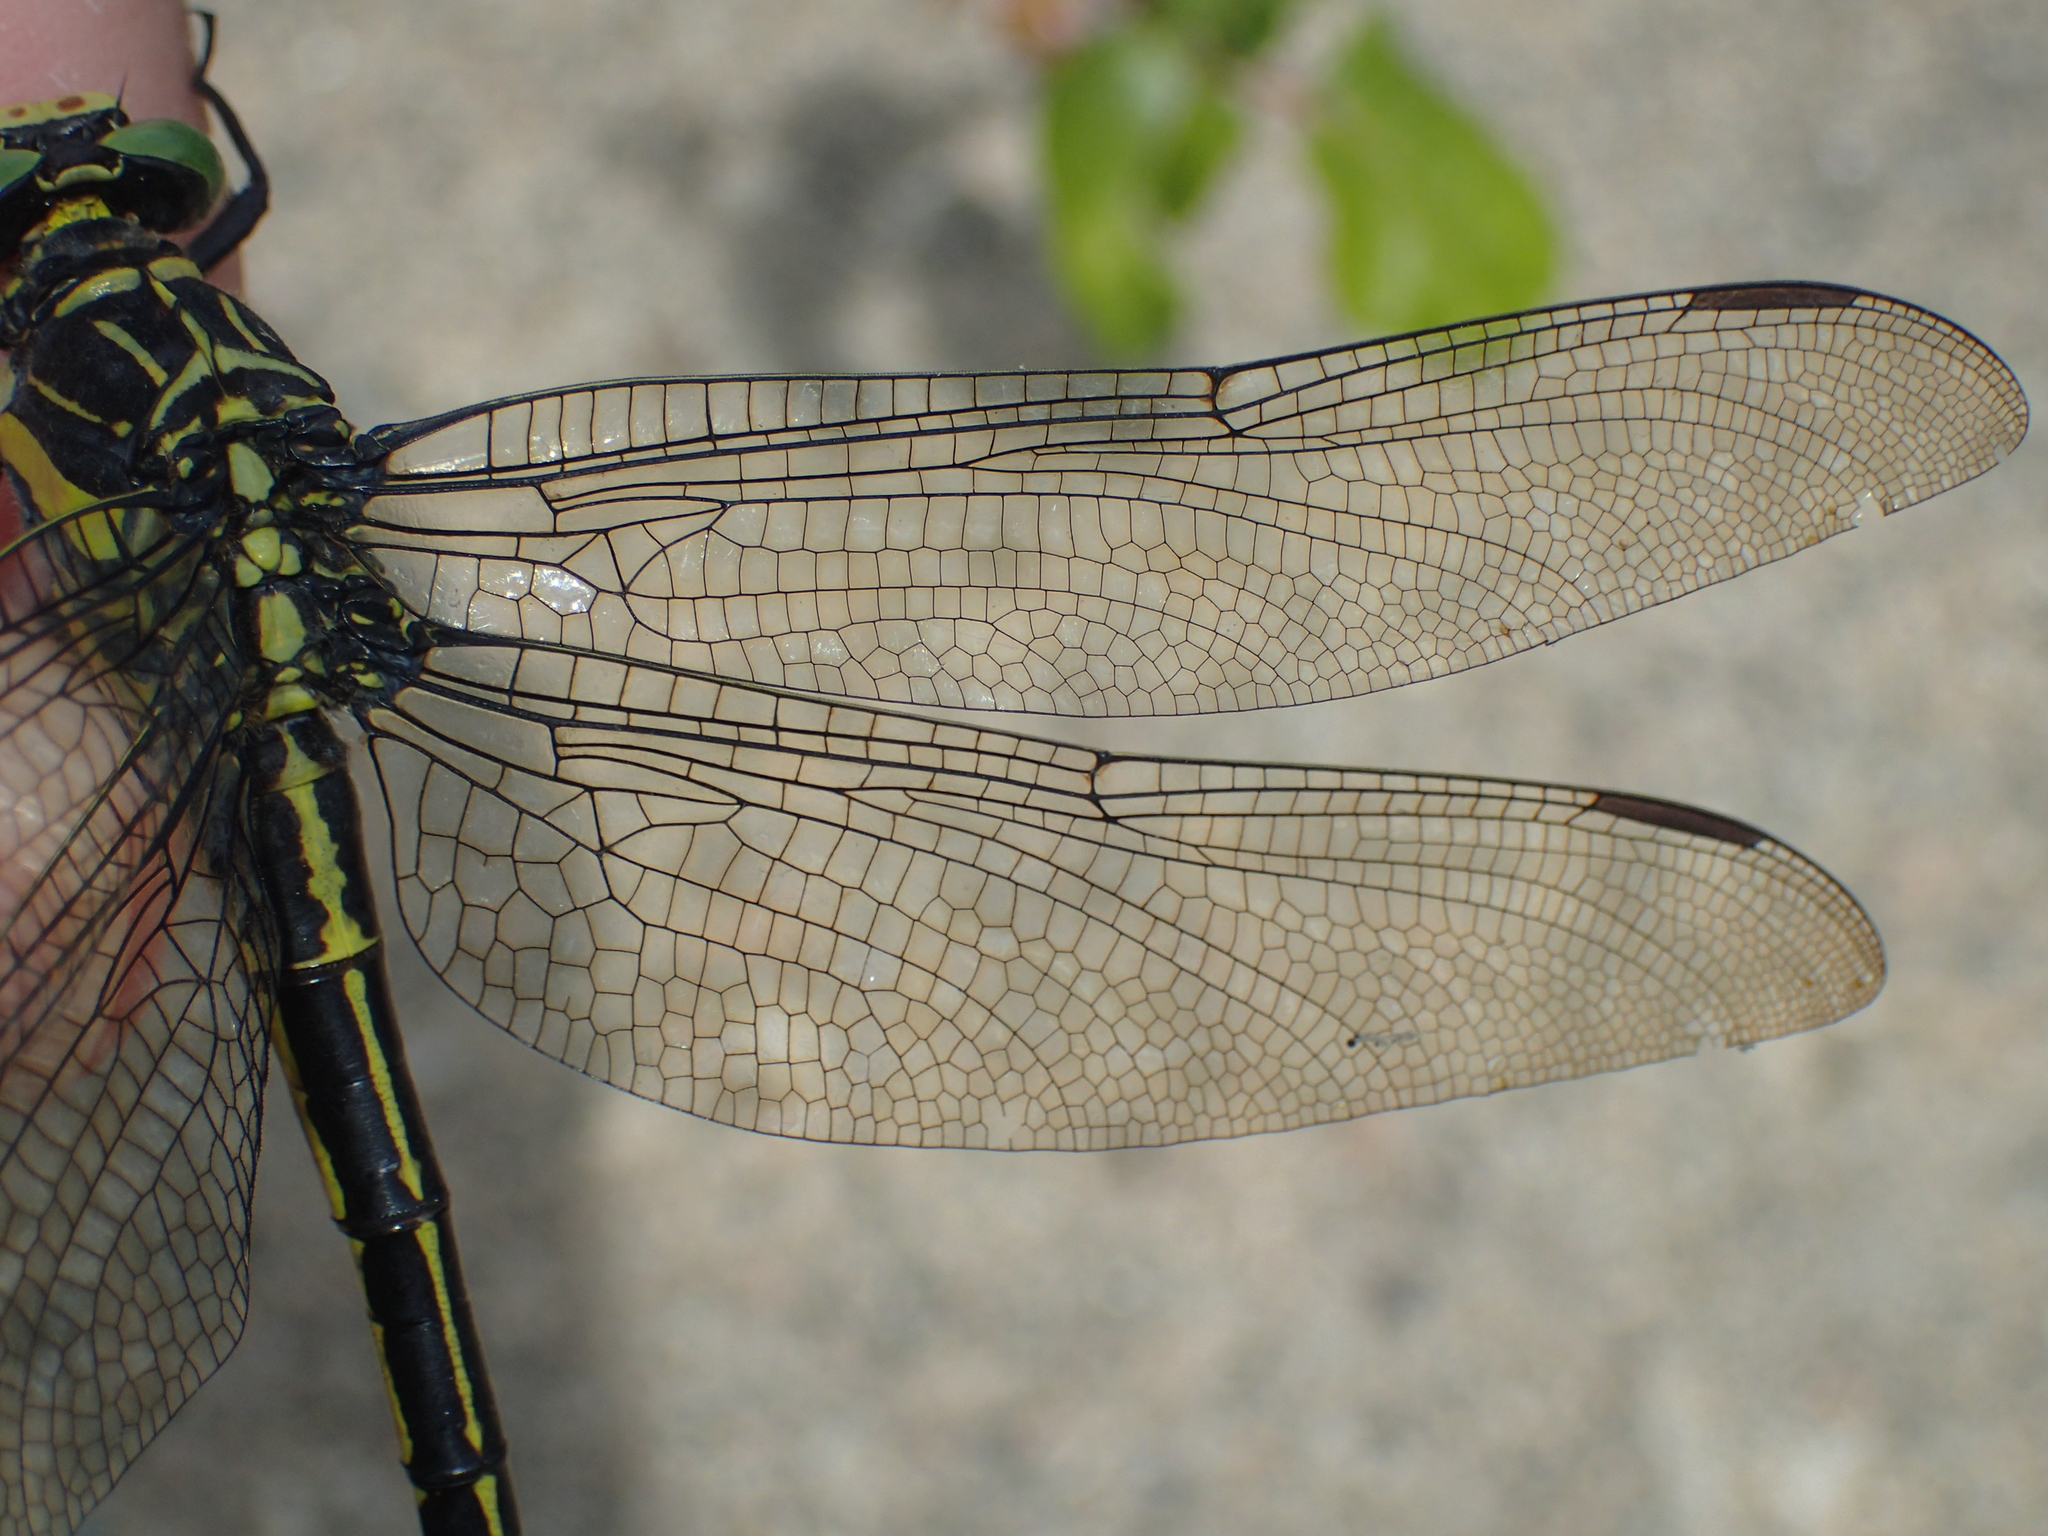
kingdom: Animalia
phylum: Arthropoda
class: Insecta
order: Odonata
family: Gomphidae
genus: Hagenius
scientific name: Hagenius brevistylus
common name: Dragonhunter
